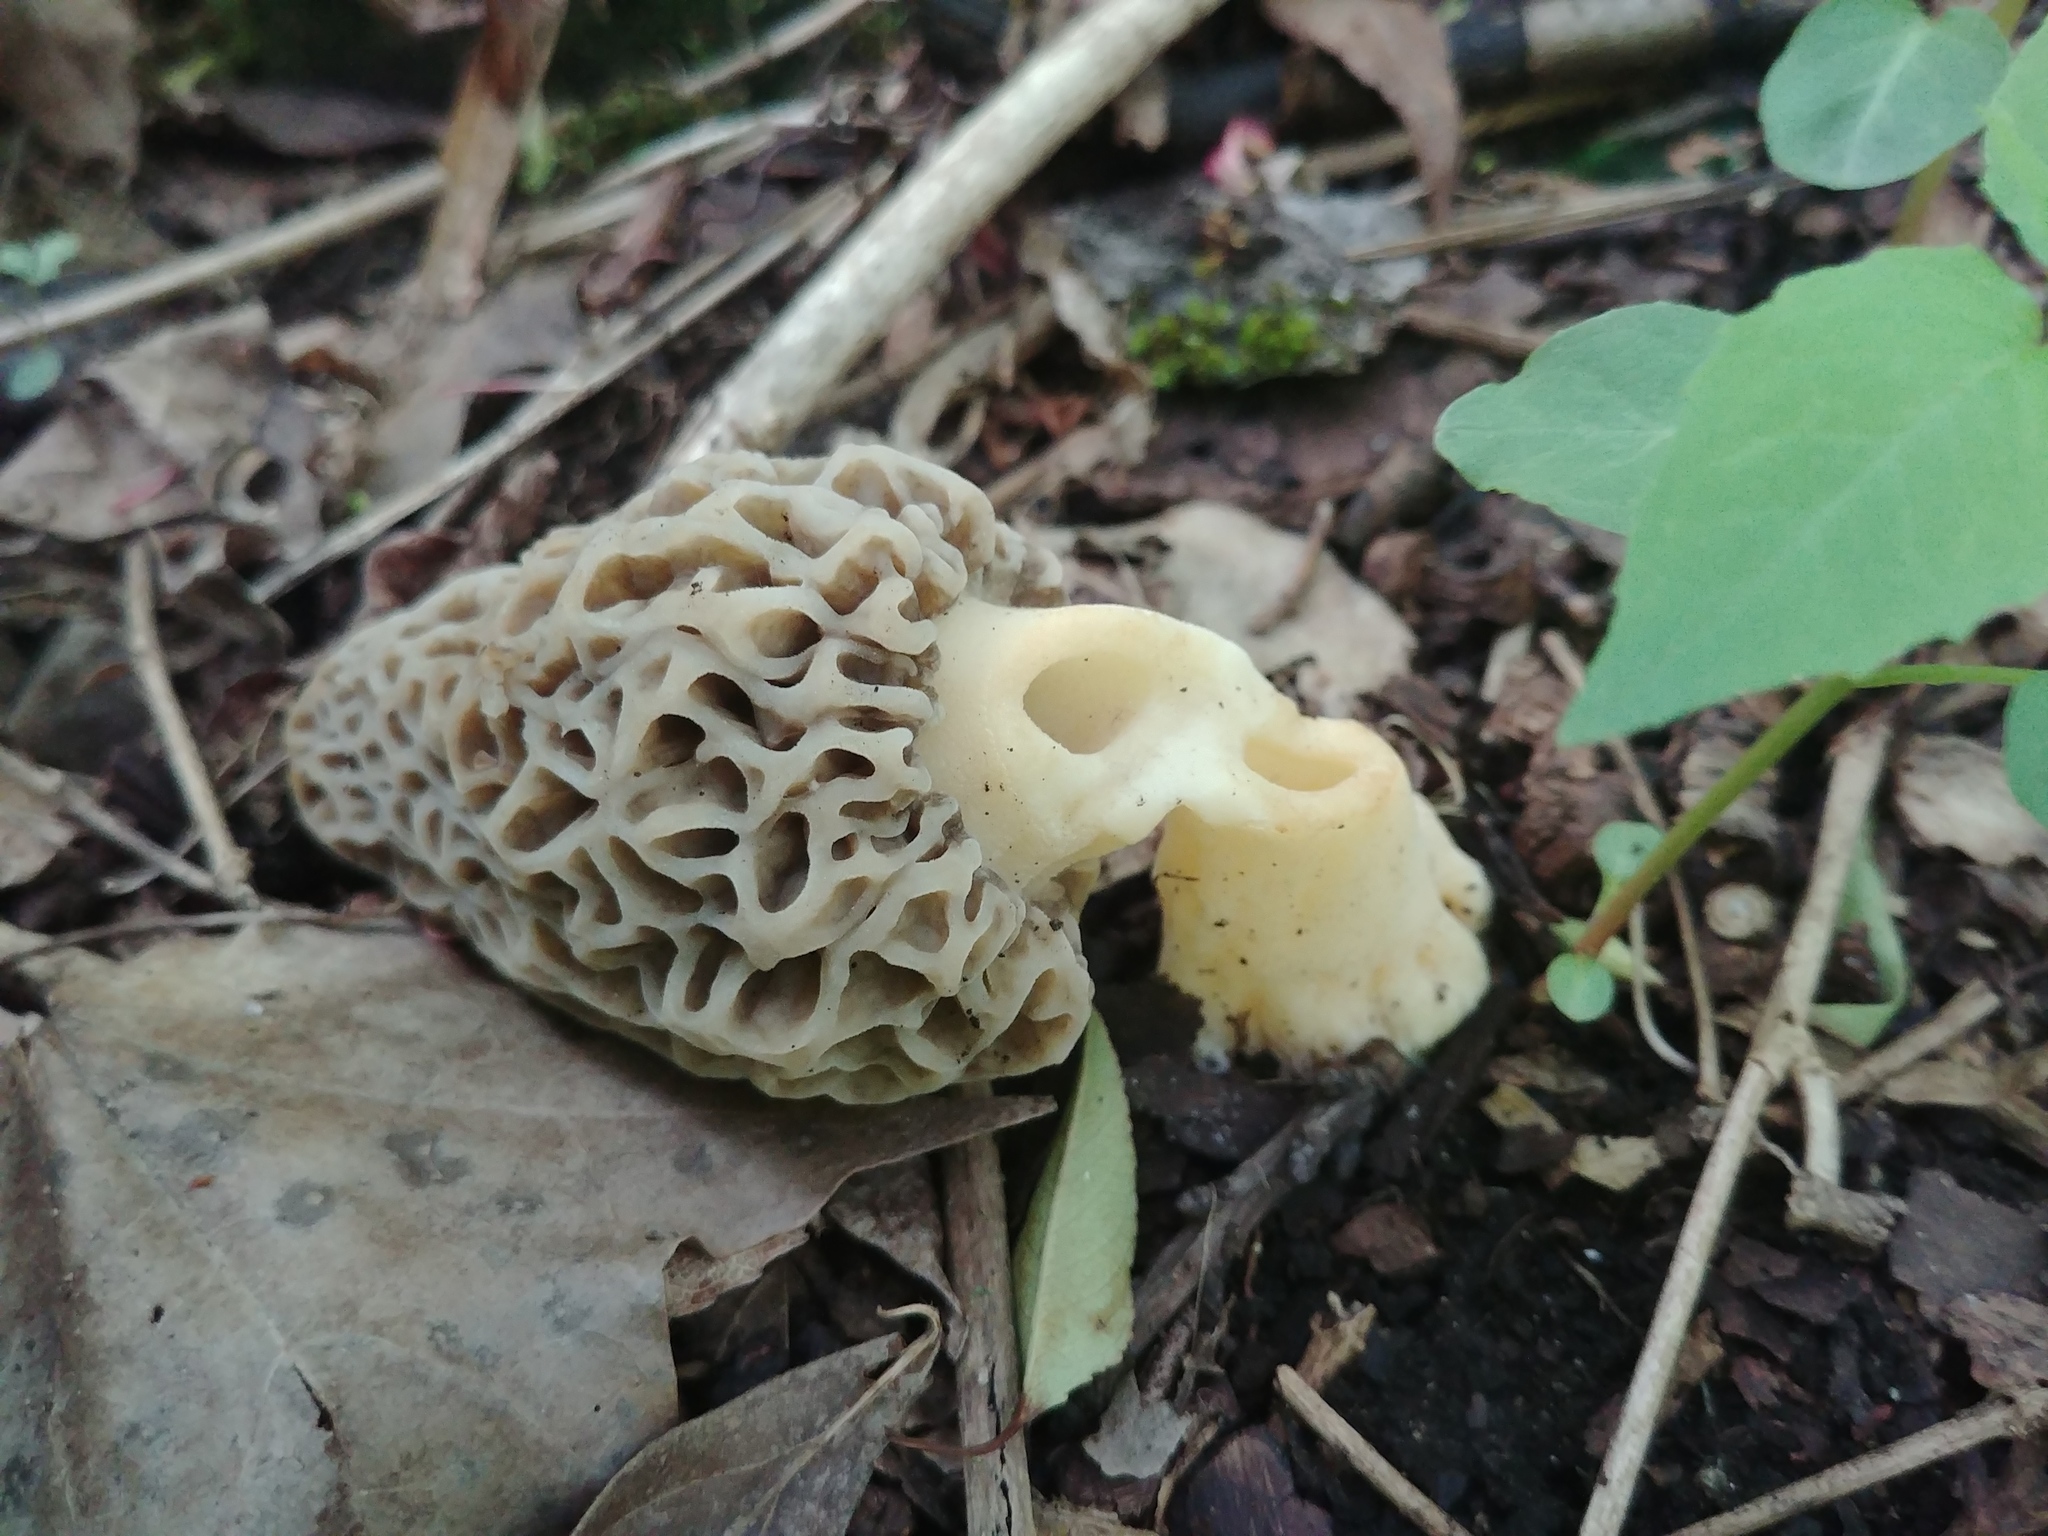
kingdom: Fungi
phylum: Ascomycota
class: Pezizomycetes
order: Pezizales
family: Morchellaceae
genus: Morchella
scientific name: Morchella americana
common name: White morel
